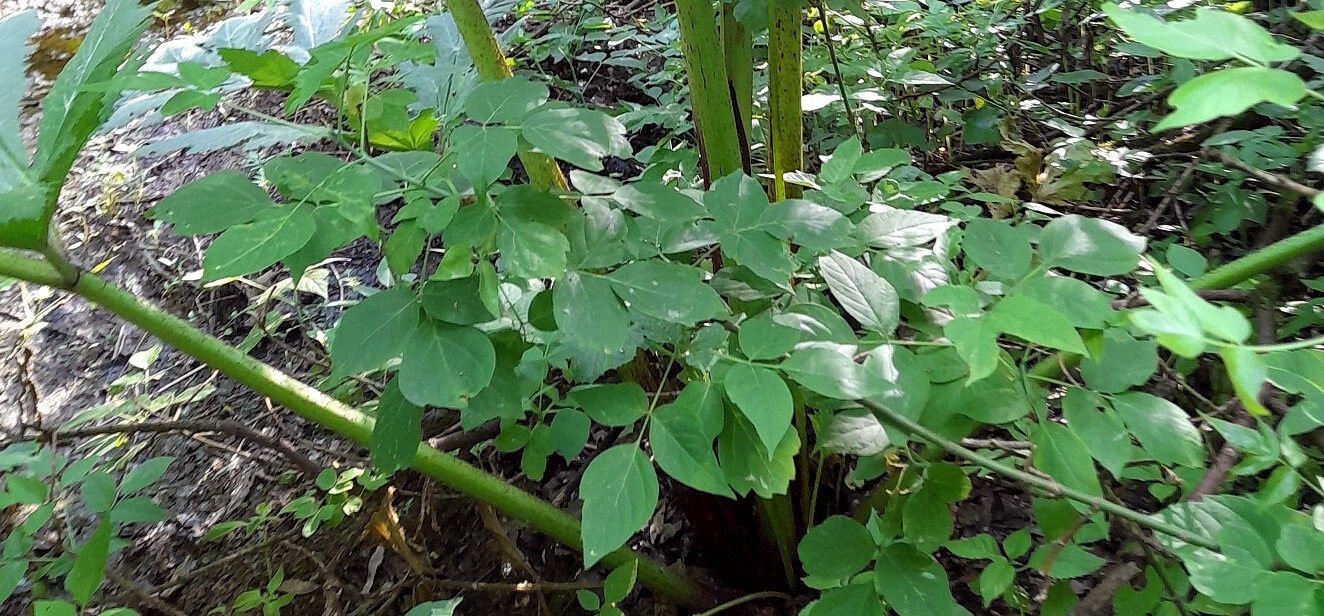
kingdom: Plantae
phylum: Tracheophyta
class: Magnoliopsida
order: Sapindales
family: Sapindaceae
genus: Acer
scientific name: Acer negundo
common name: Ashleaf maple
